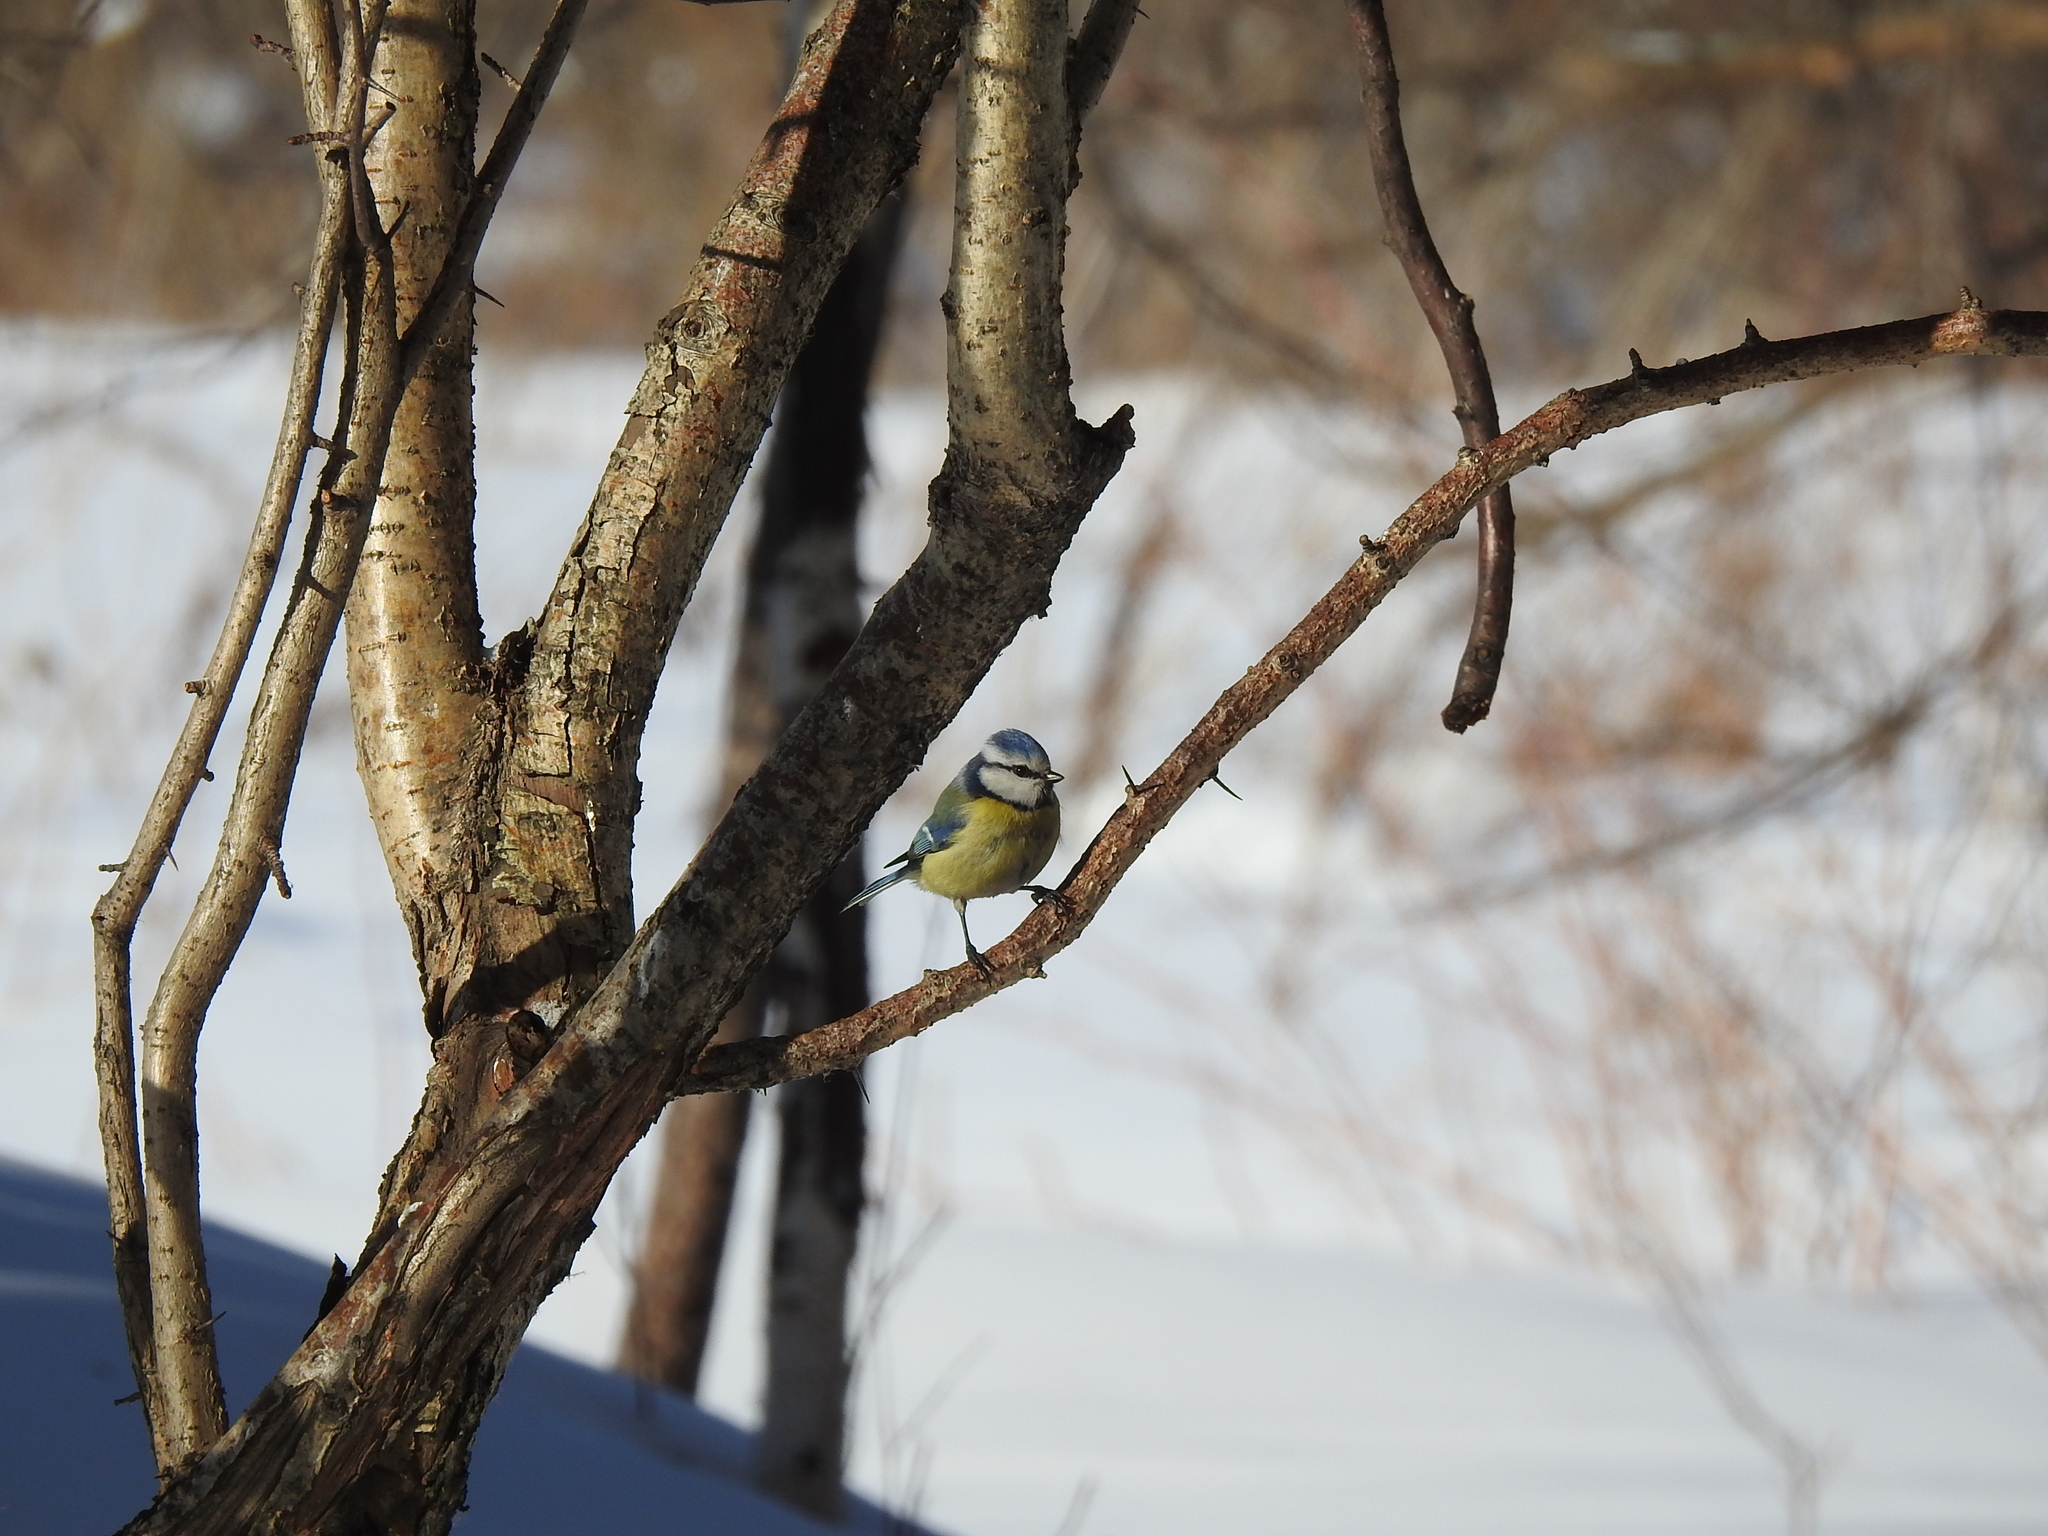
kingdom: Animalia
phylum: Chordata
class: Aves
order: Passeriformes
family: Paridae
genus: Cyanistes
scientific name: Cyanistes caeruleus
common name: Eurasian blue tit
